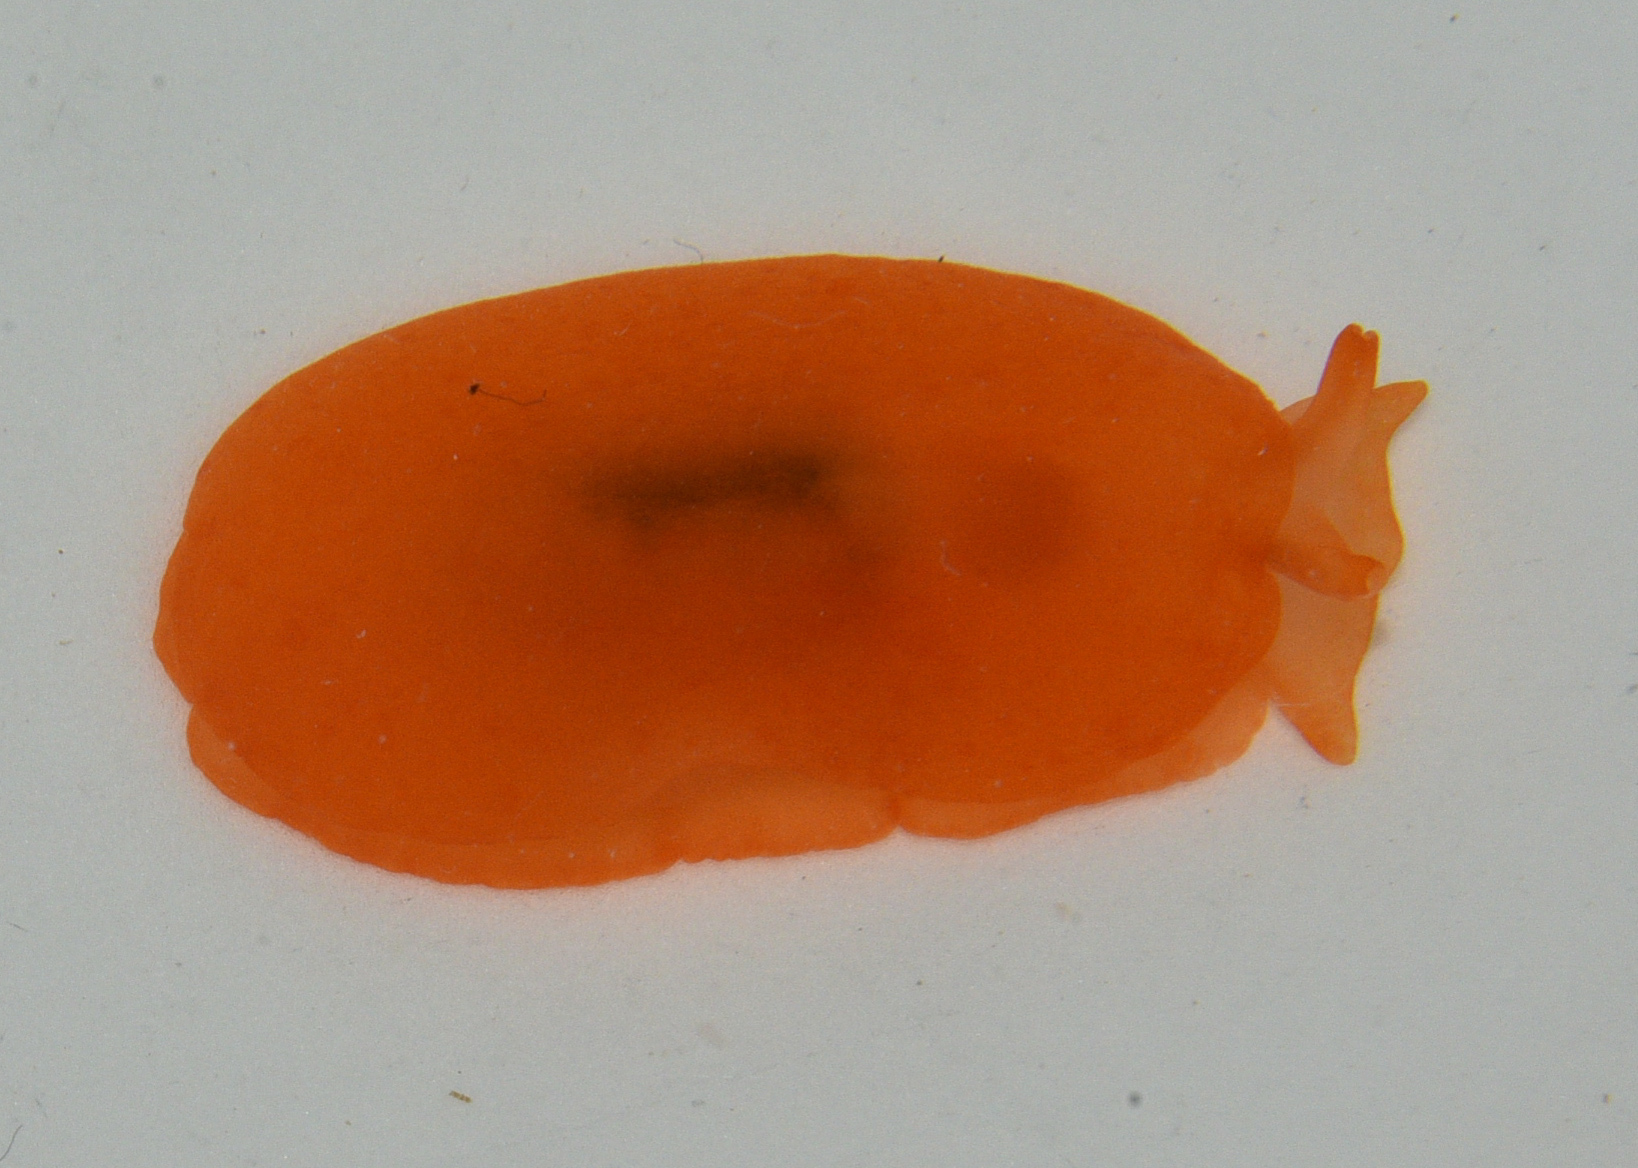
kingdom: Animalia
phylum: Mollusca
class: Gastropoda
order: Pleurobranchida
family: Pleurobranchidae
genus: Berthellina
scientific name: Berthellina delicata
